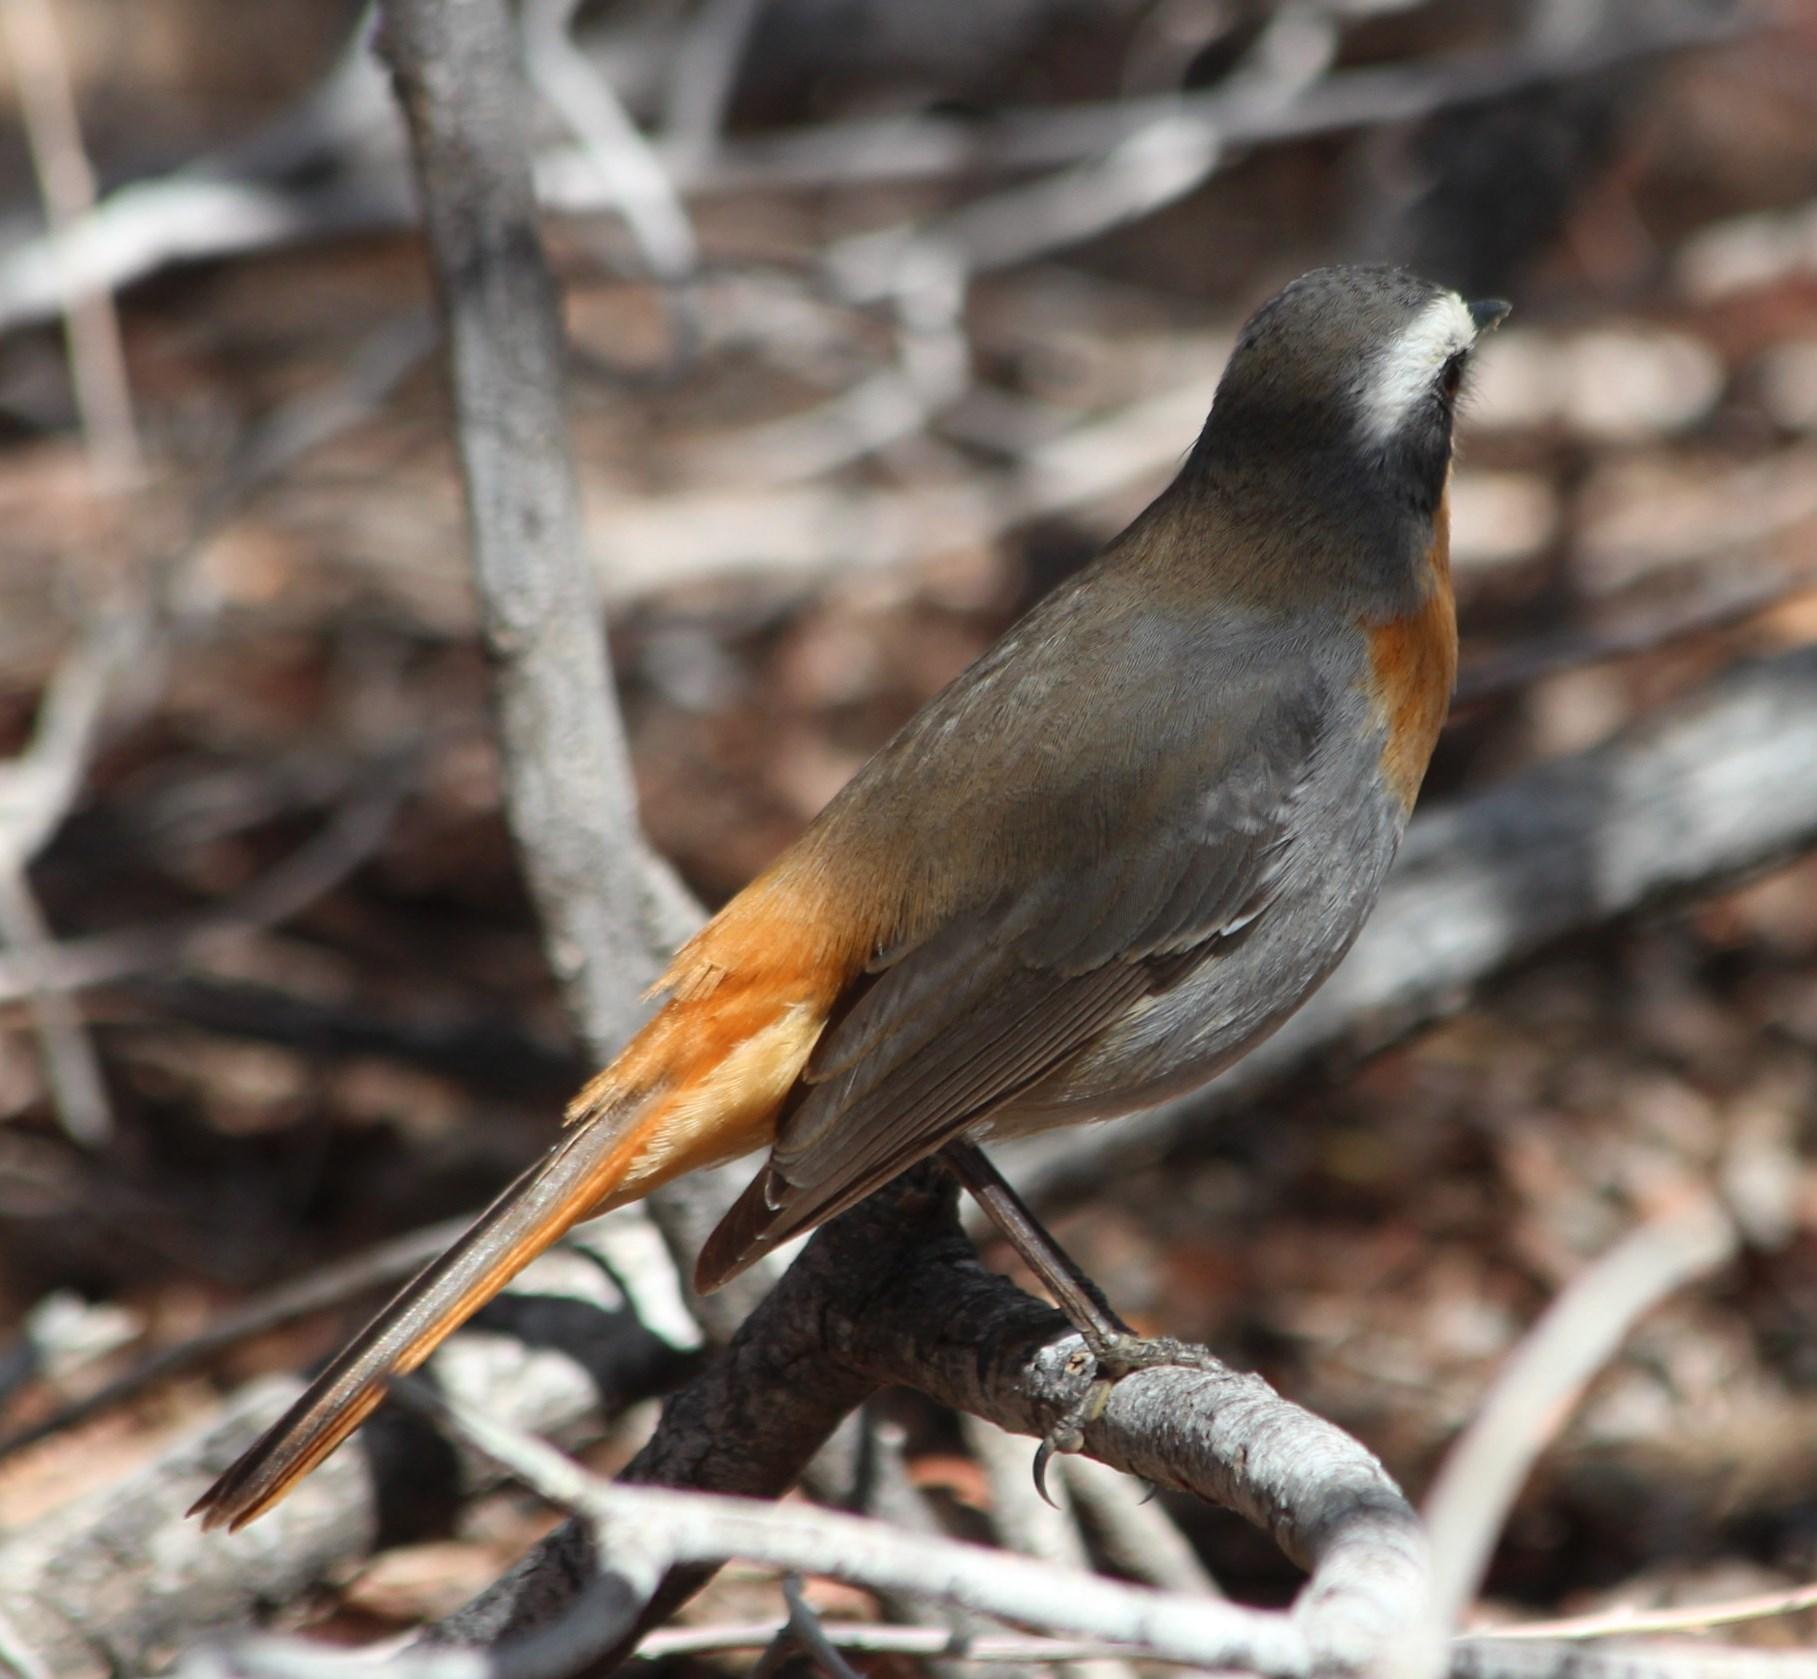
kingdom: Animalia
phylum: Chordata
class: Aves
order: Passeriformes
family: Muscicapidae
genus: Cossypha
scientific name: Cossypha caffra
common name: Cape robin-chat
